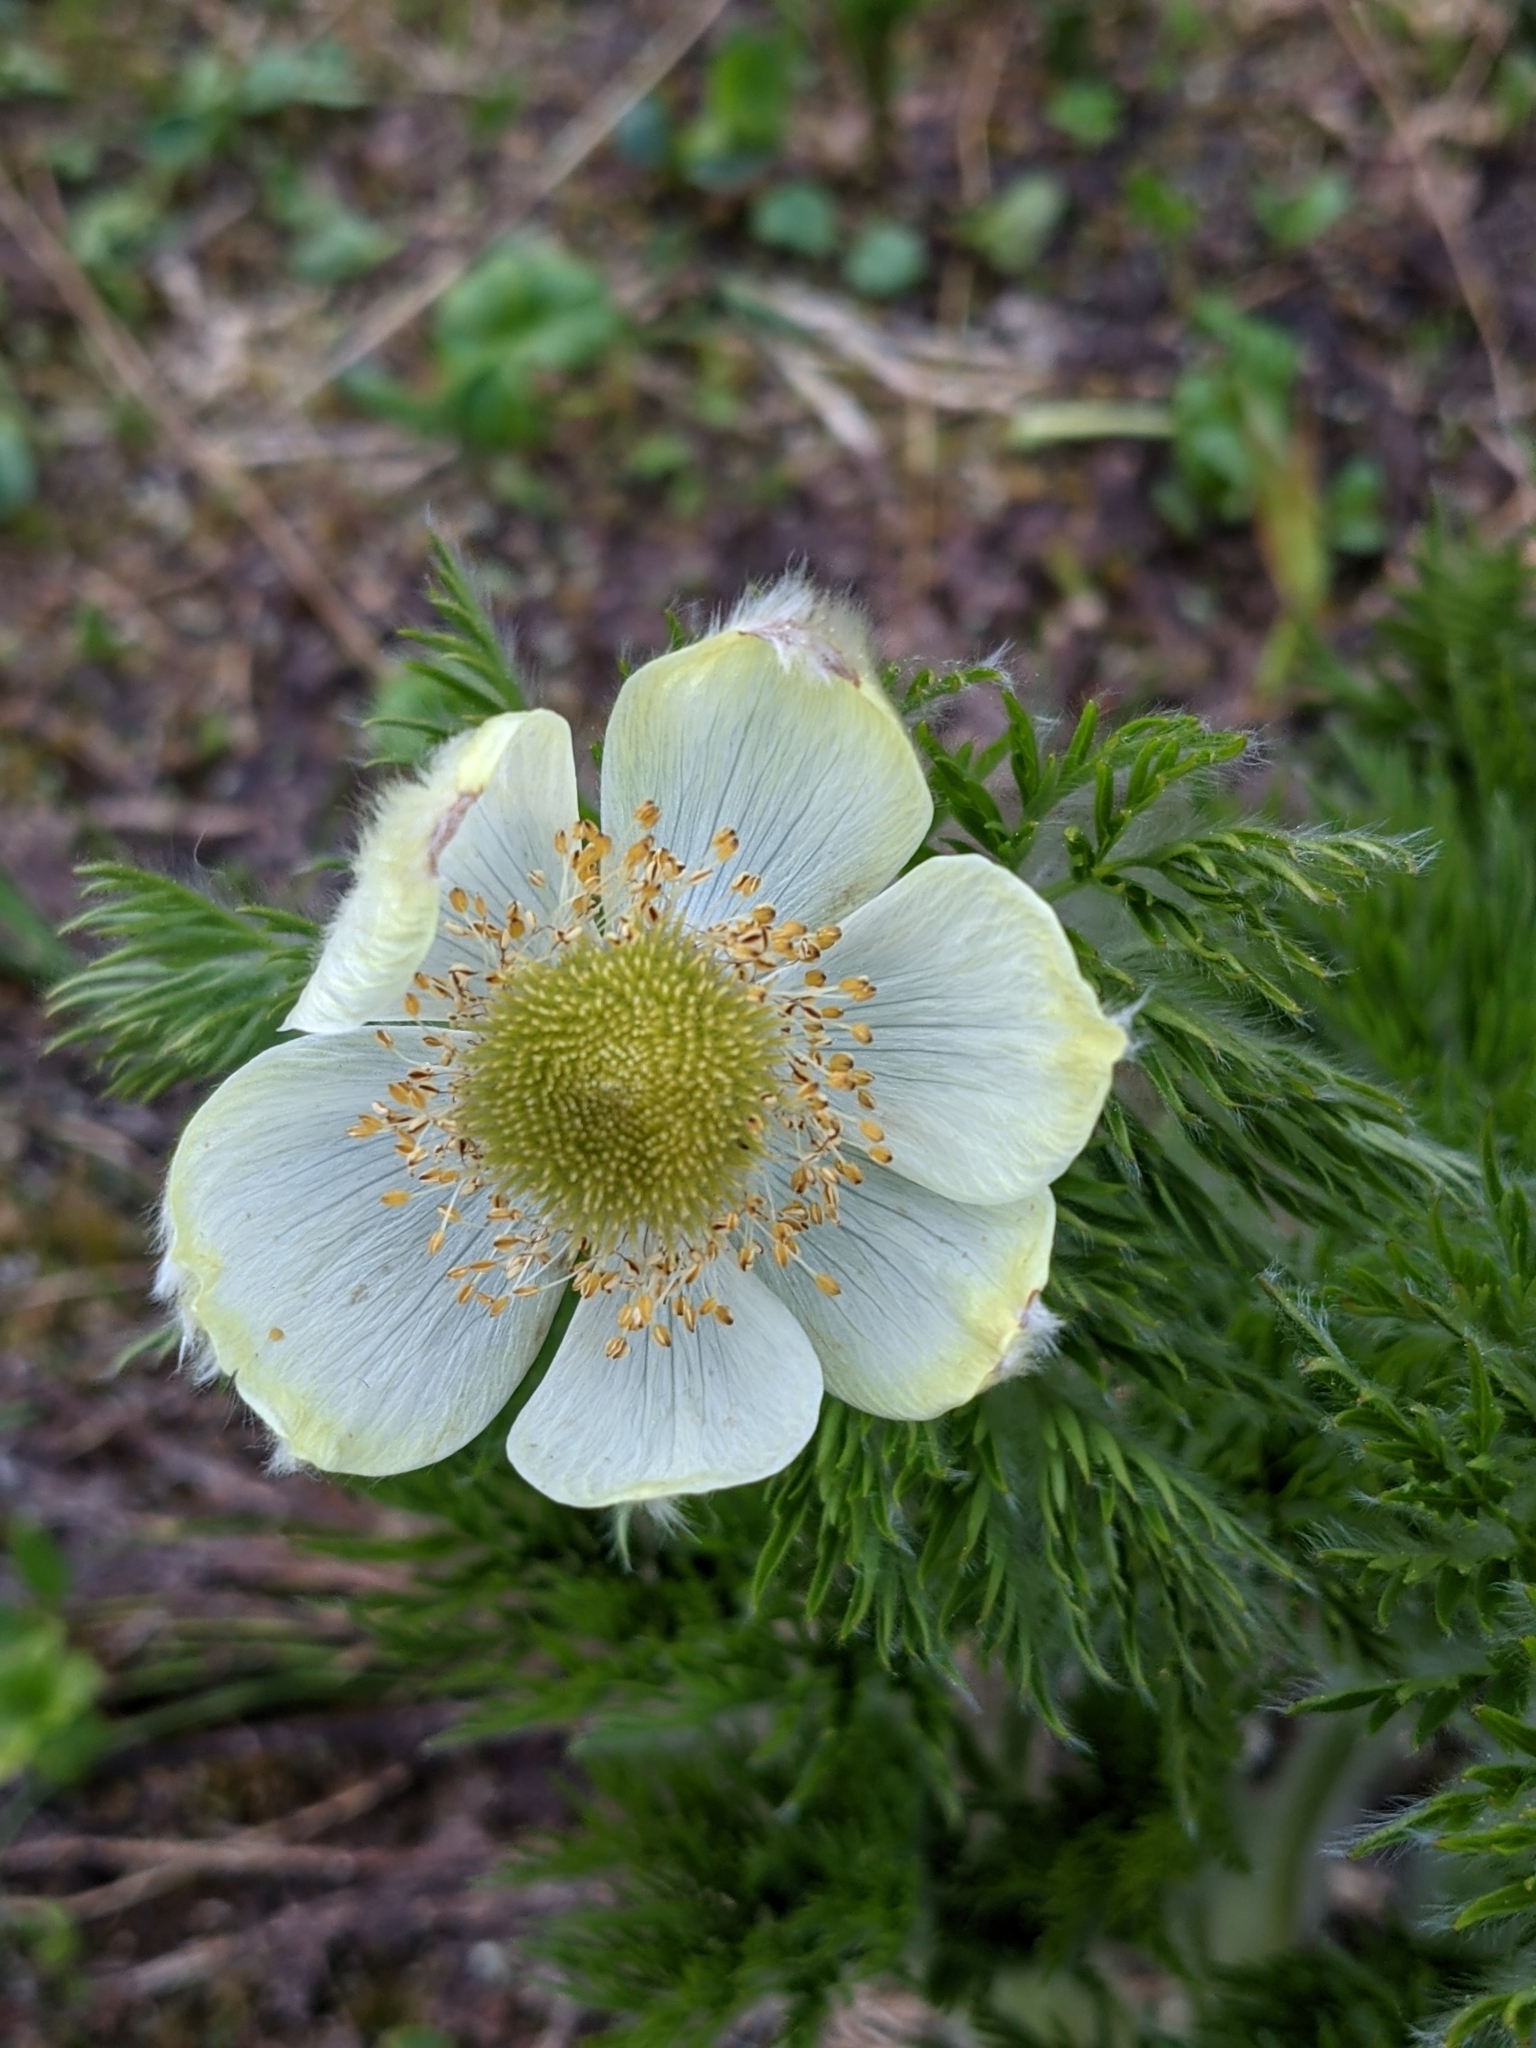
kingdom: Plantae
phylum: Tracheophyta
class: Magnoliopsida
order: Ranunculales
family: Ranunculaceae
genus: Pulsatilla
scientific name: Pulsatilla occidentalis
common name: Mountain pasqueflower
